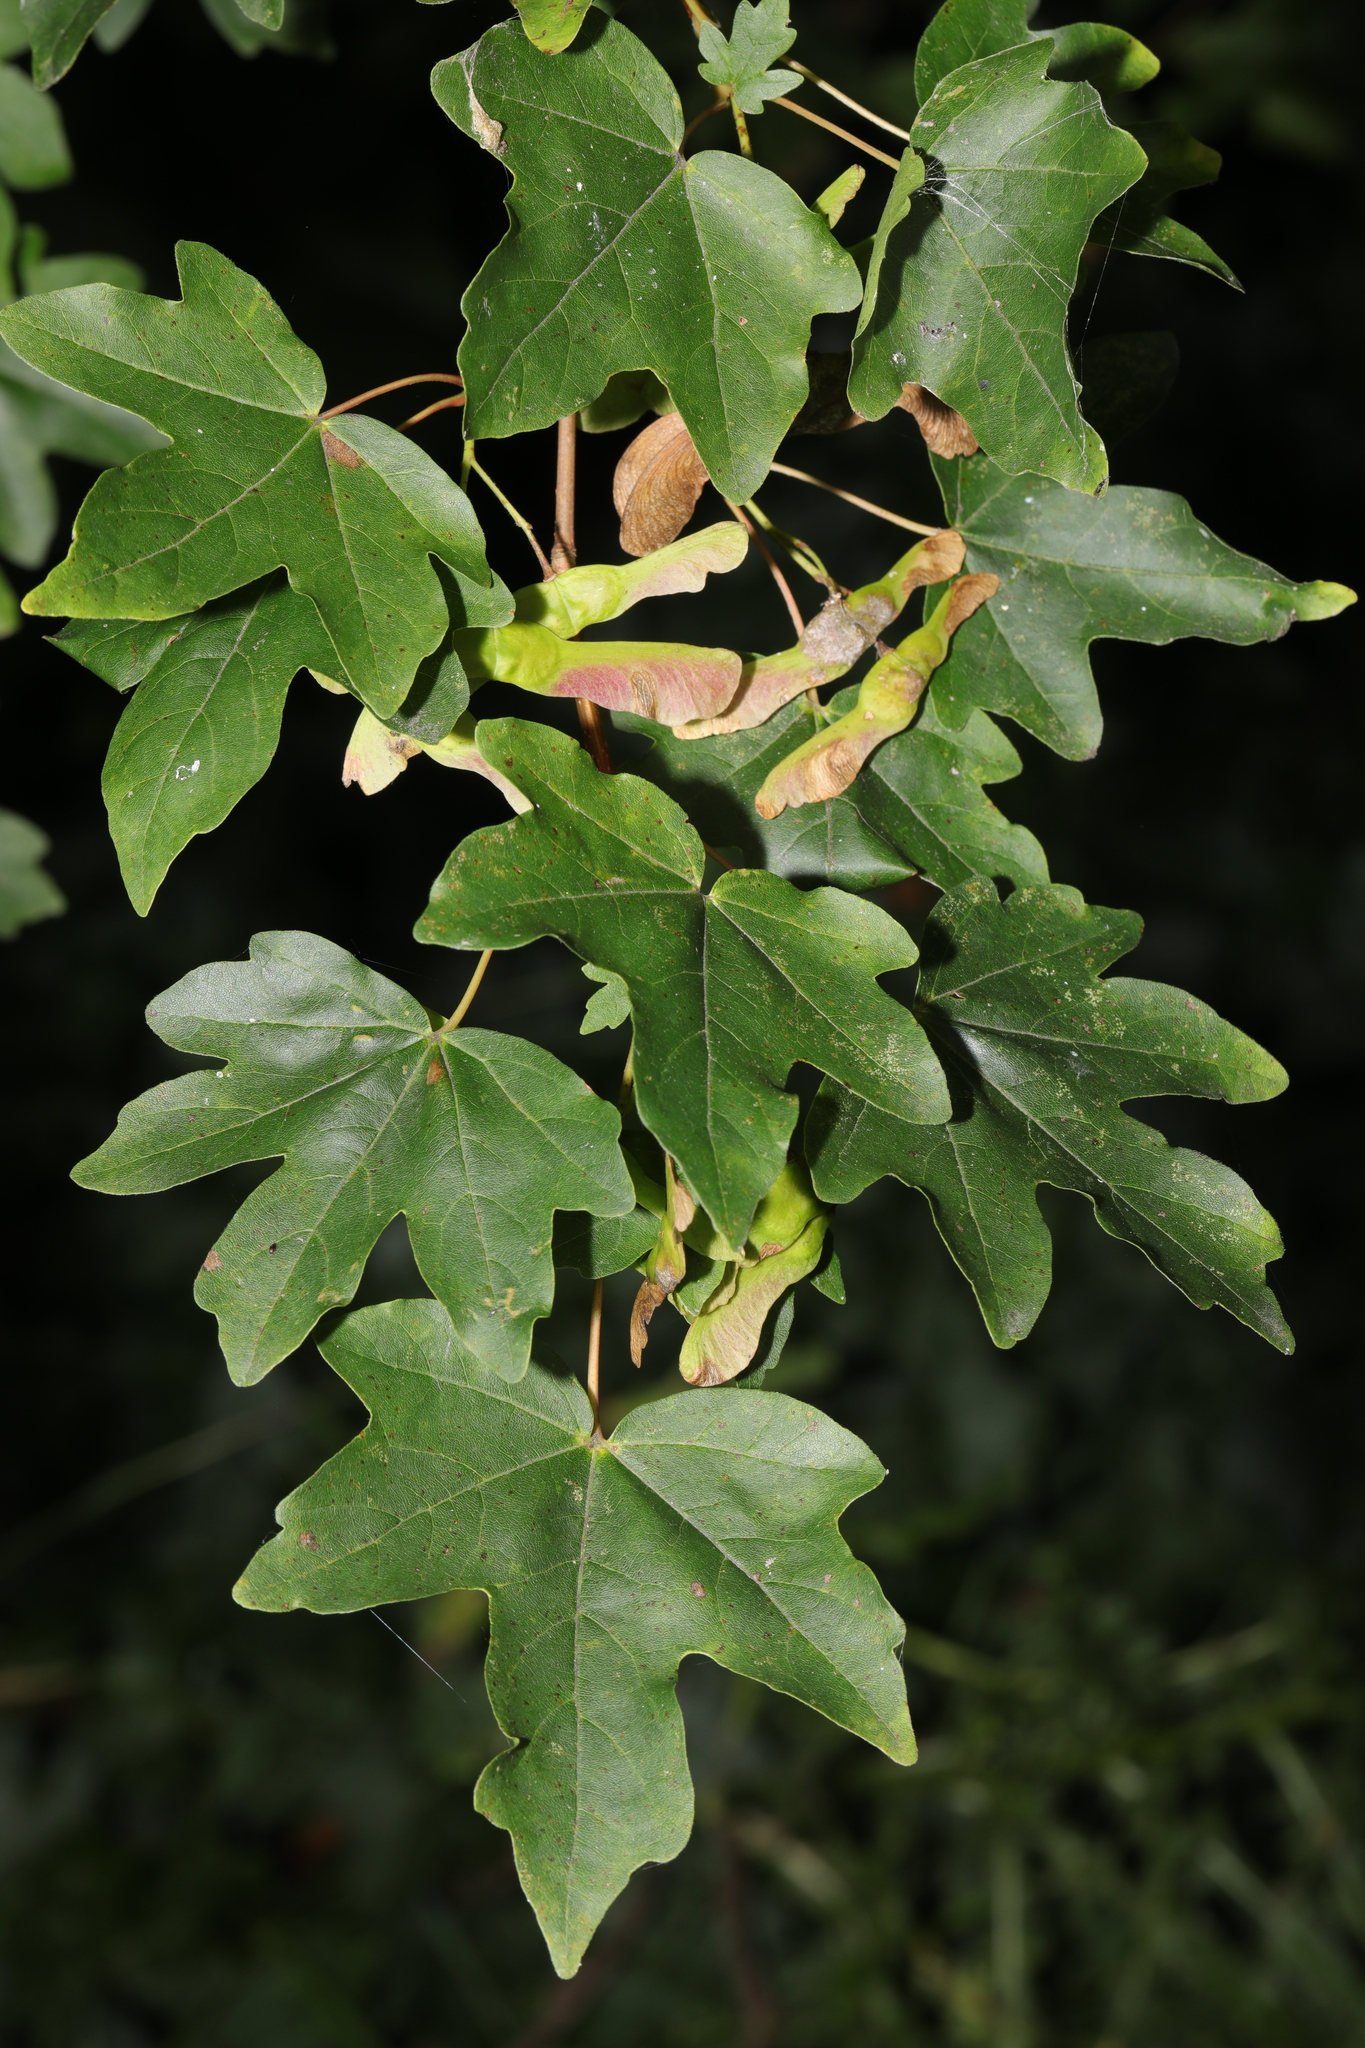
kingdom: Plantae
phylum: Tracheophyta
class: Magnoliopsida
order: Sapindales
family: Sapindaceae
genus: Acer
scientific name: Acer campestre
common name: Field maple
